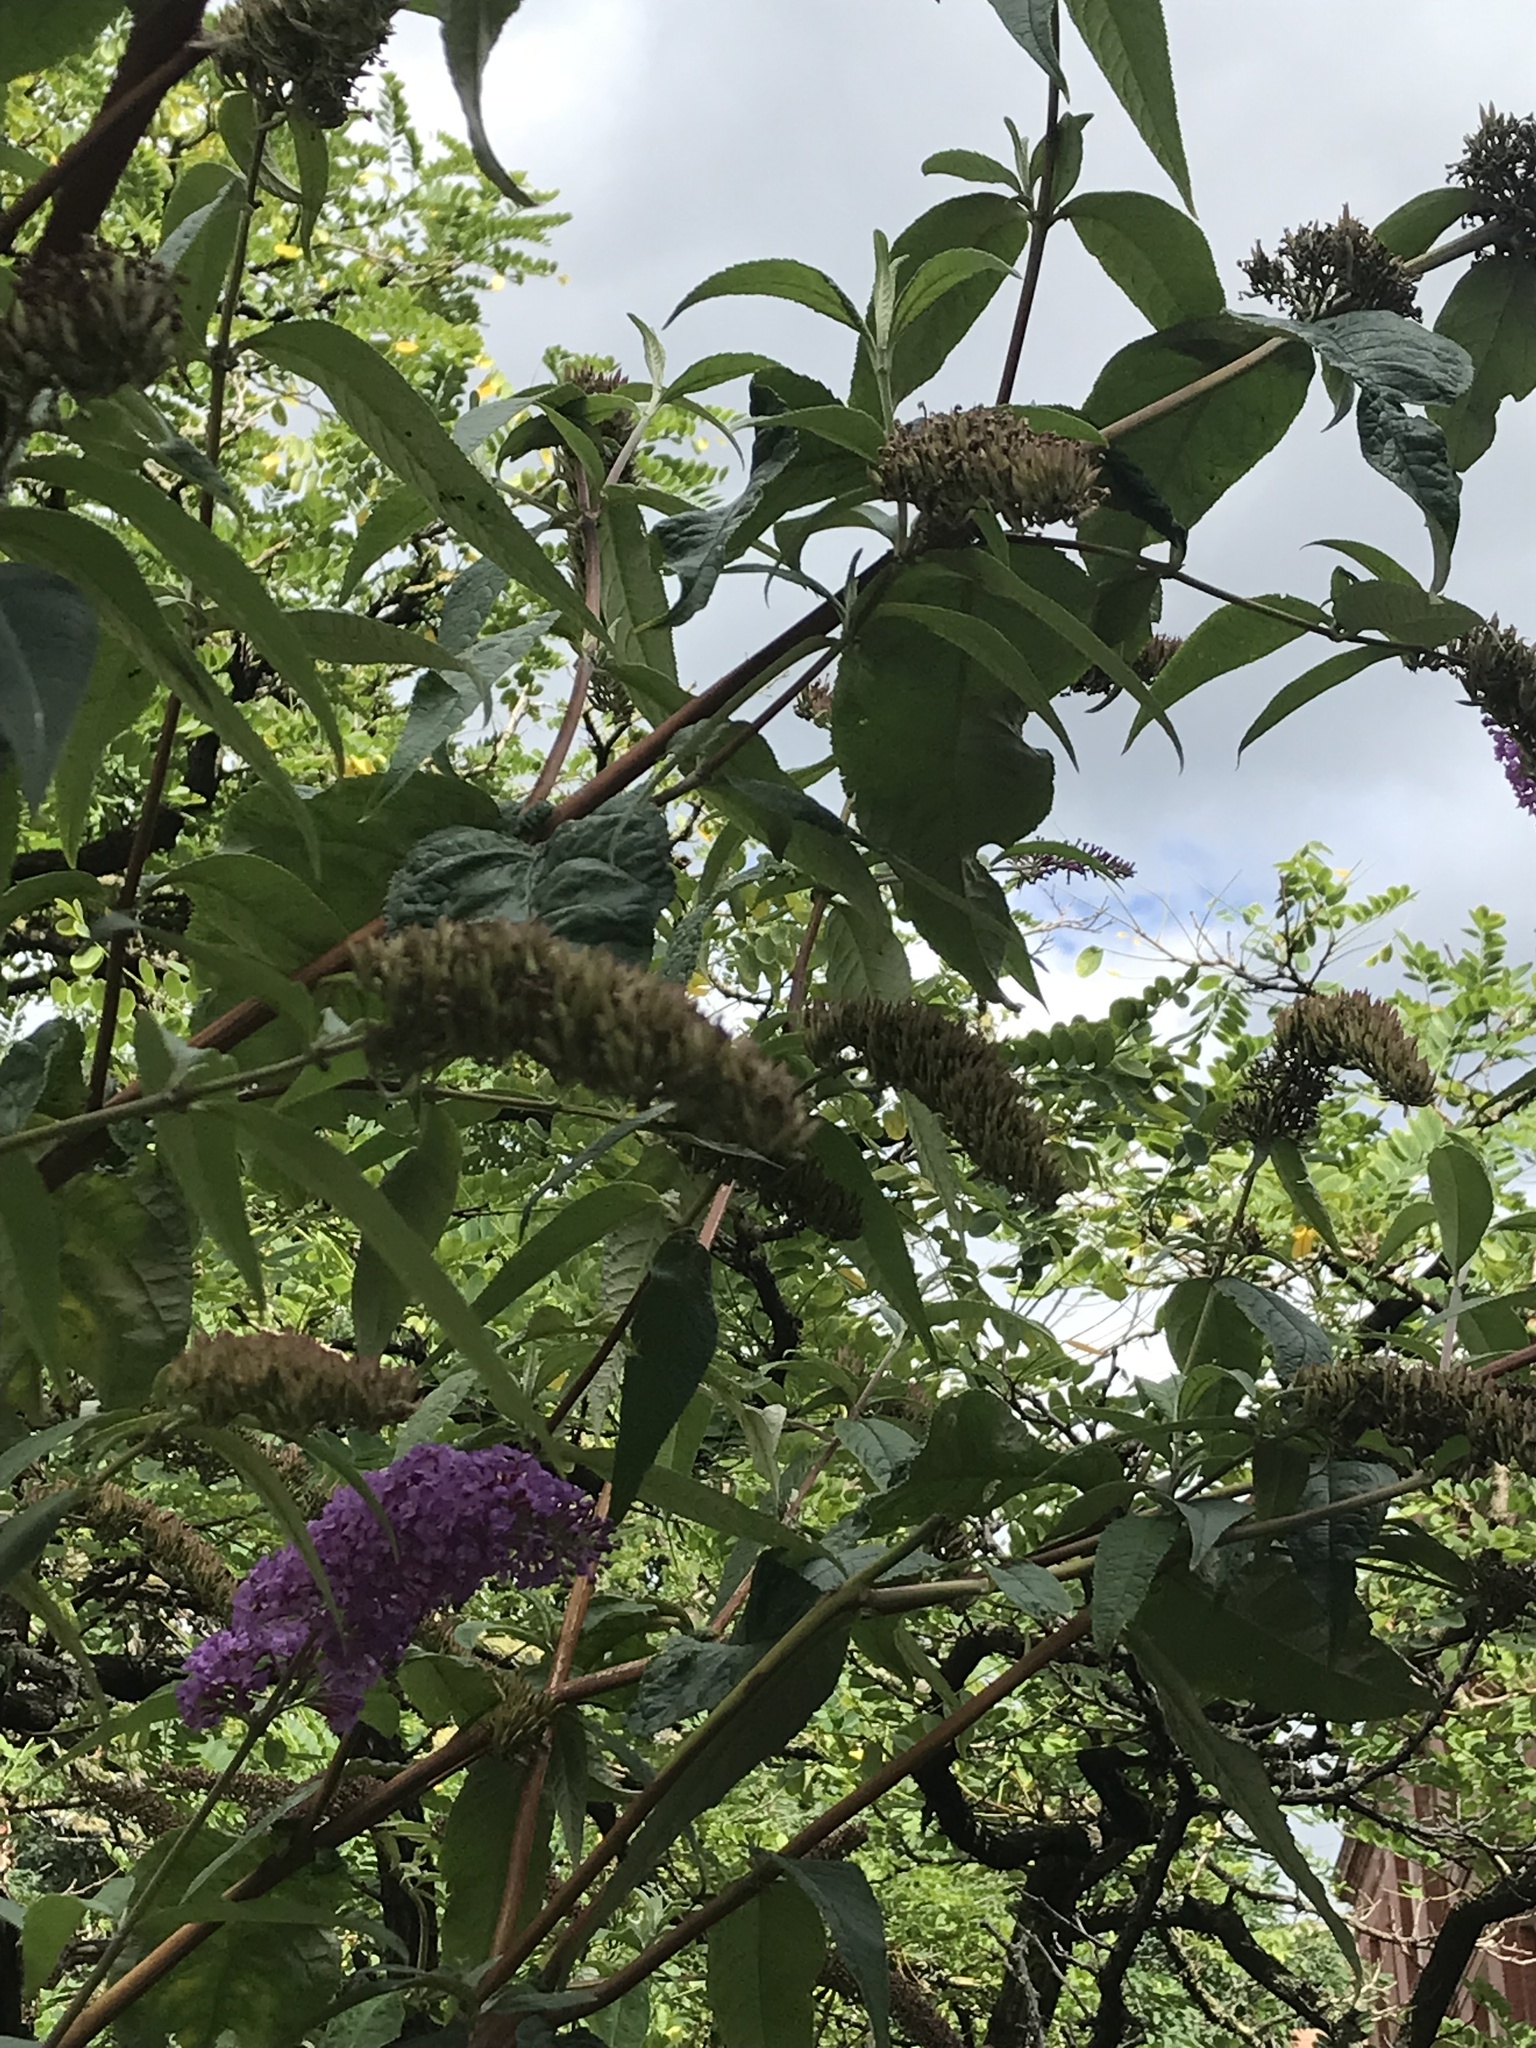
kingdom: Plantae
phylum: Tracheophyta
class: Magnoliopsida
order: Lamiales
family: Scrophulariaceae
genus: Buddleja
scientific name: Buddleja davidii
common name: Butterfly-bush
